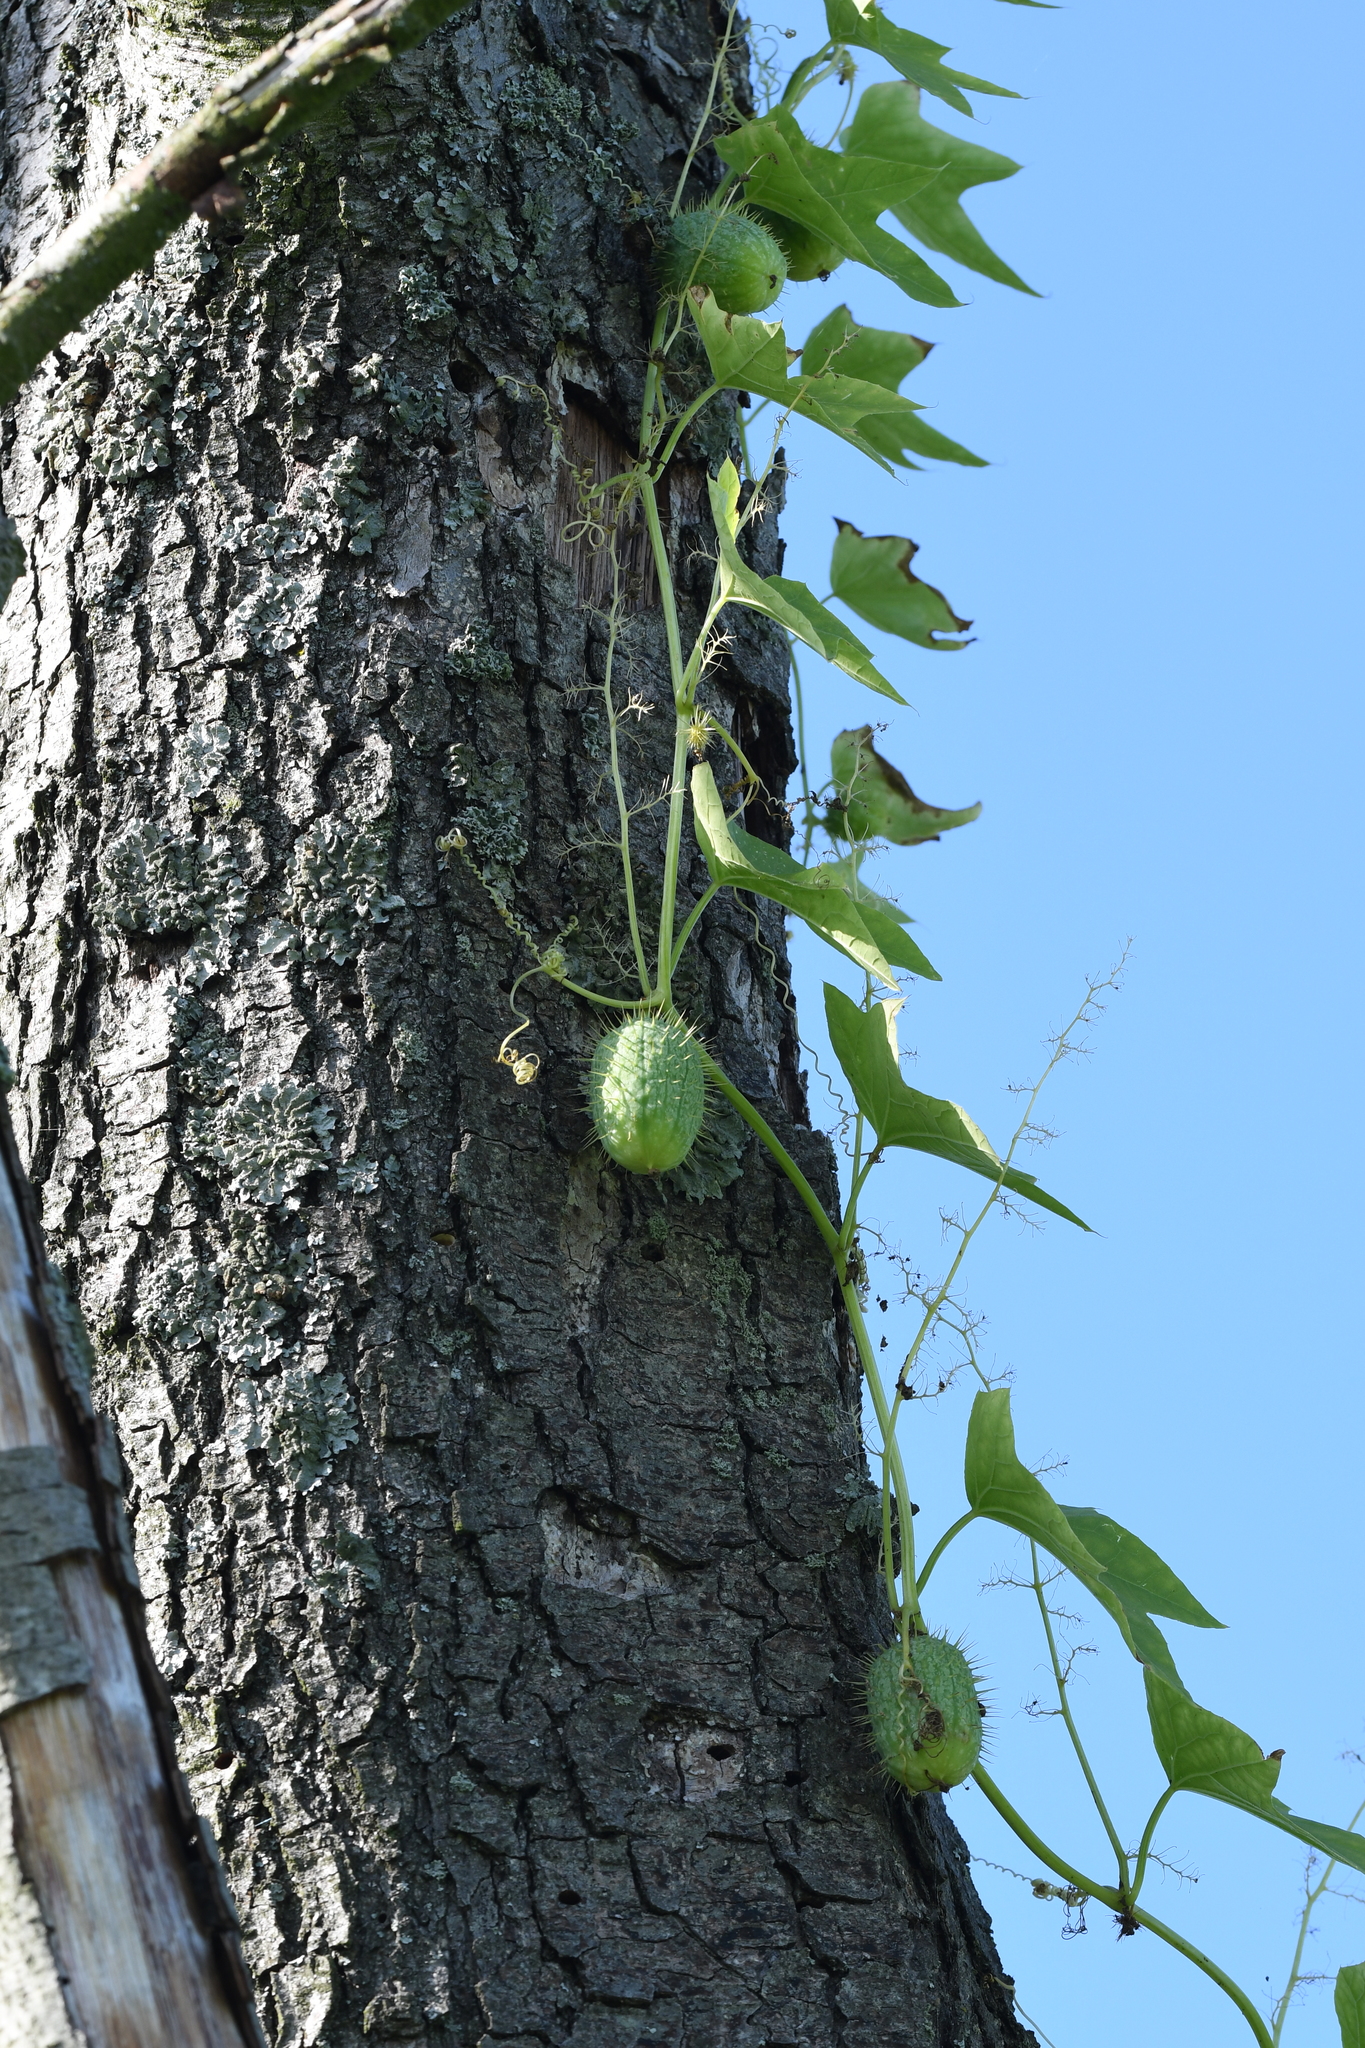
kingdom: Plantae
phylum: Tracheophyta
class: Magnoliopsida
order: Cucurbitales
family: Cucurbitaceae
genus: Echinocystis
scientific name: Echinocystis lobata
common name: Wild cucumber
